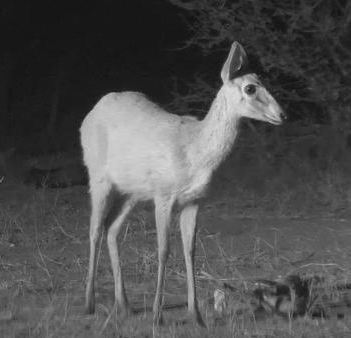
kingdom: Animalia
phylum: Chordata
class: Mammalia
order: Artiodactyla
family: Bovidae
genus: Sylvicapra
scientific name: Sylvicapra grimmia
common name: Bush duiker
